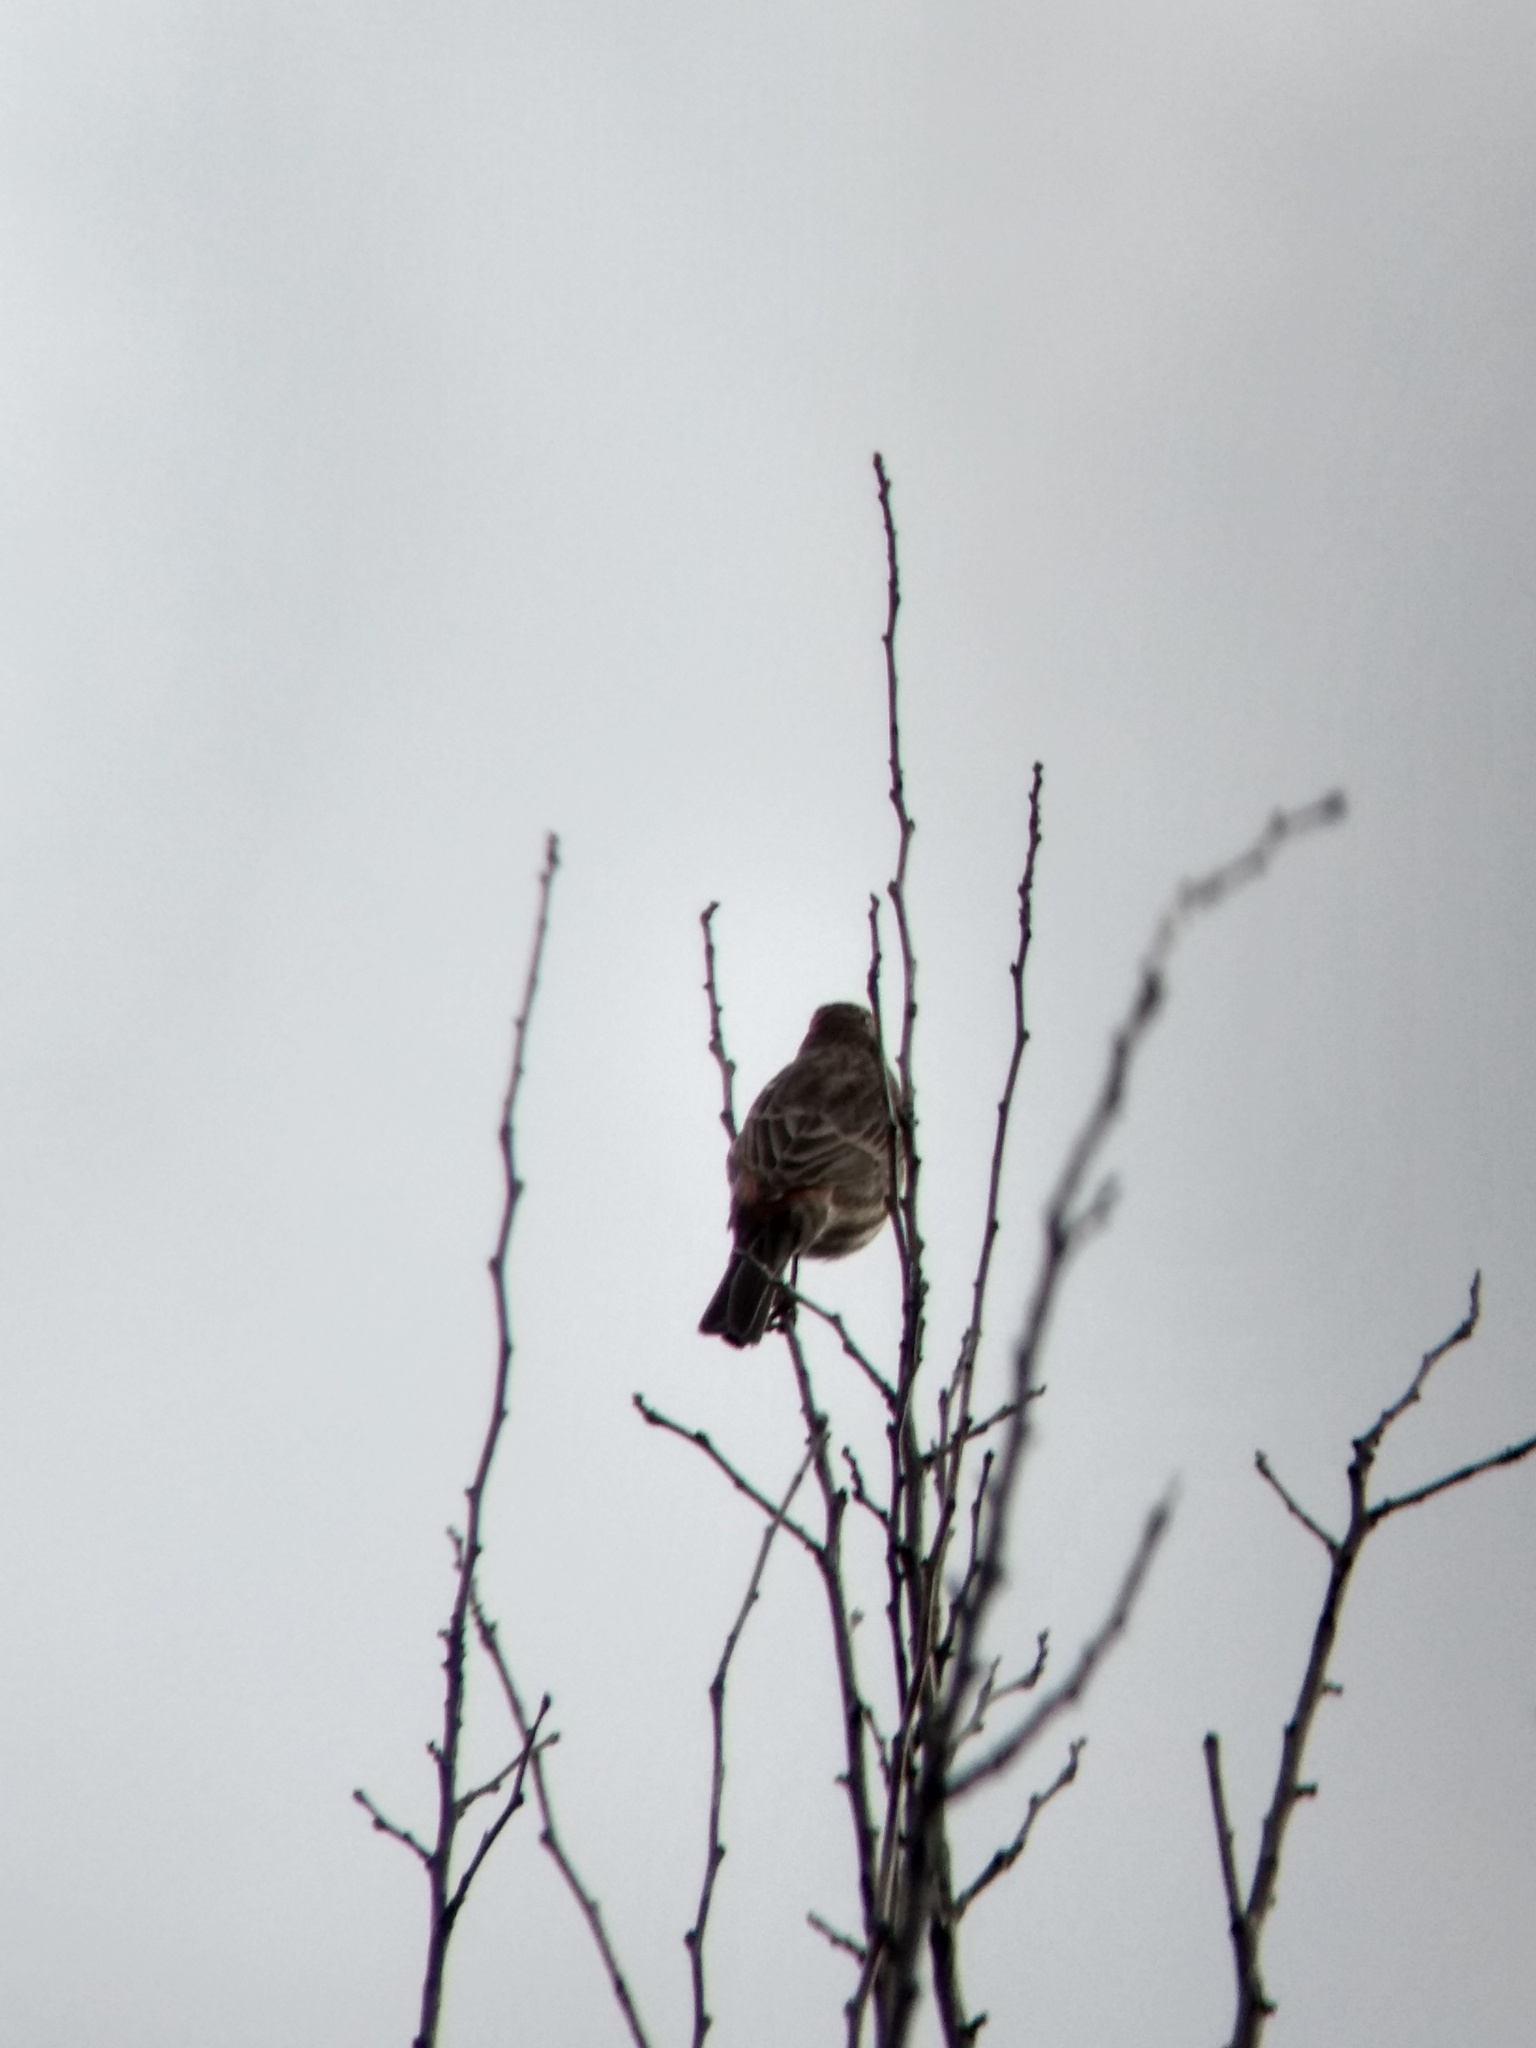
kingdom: Animalia
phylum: Chordata
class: Aves
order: Passeriformes
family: Fringillidae
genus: Haemorhous
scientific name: Haemorhous mexicanus
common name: House finch
